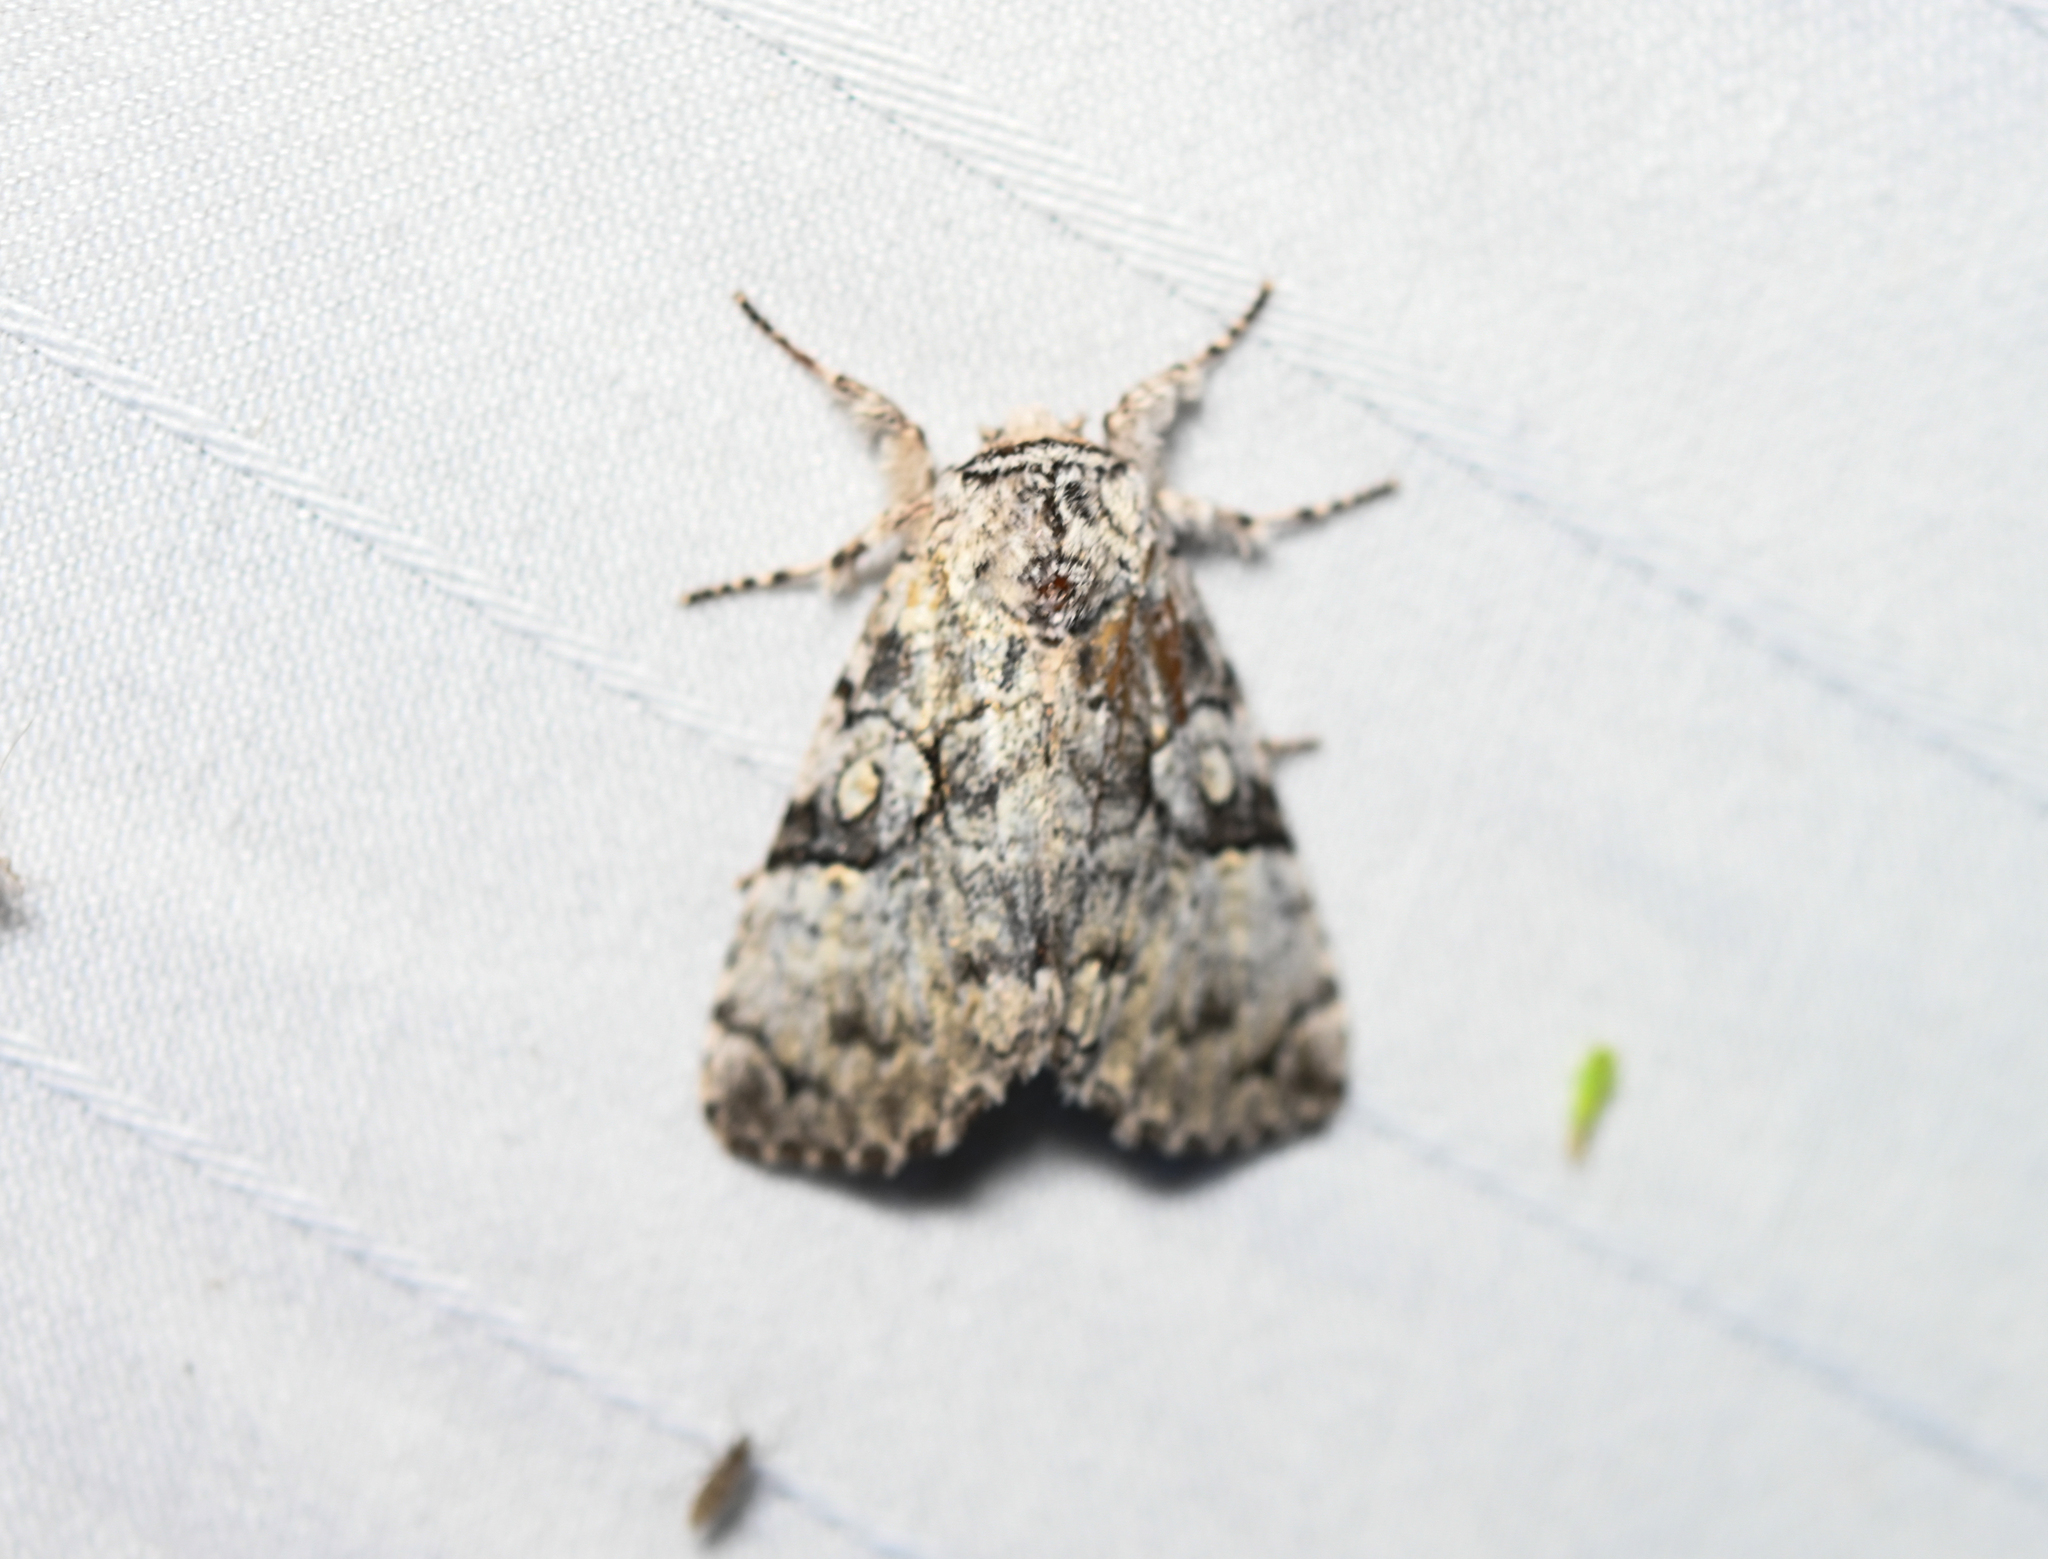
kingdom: Animalia
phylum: Arthropoda
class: Insecta
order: Lepidoptera
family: Noctuidae
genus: Charadra
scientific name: Charadra deridens
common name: Marbled tuffet
